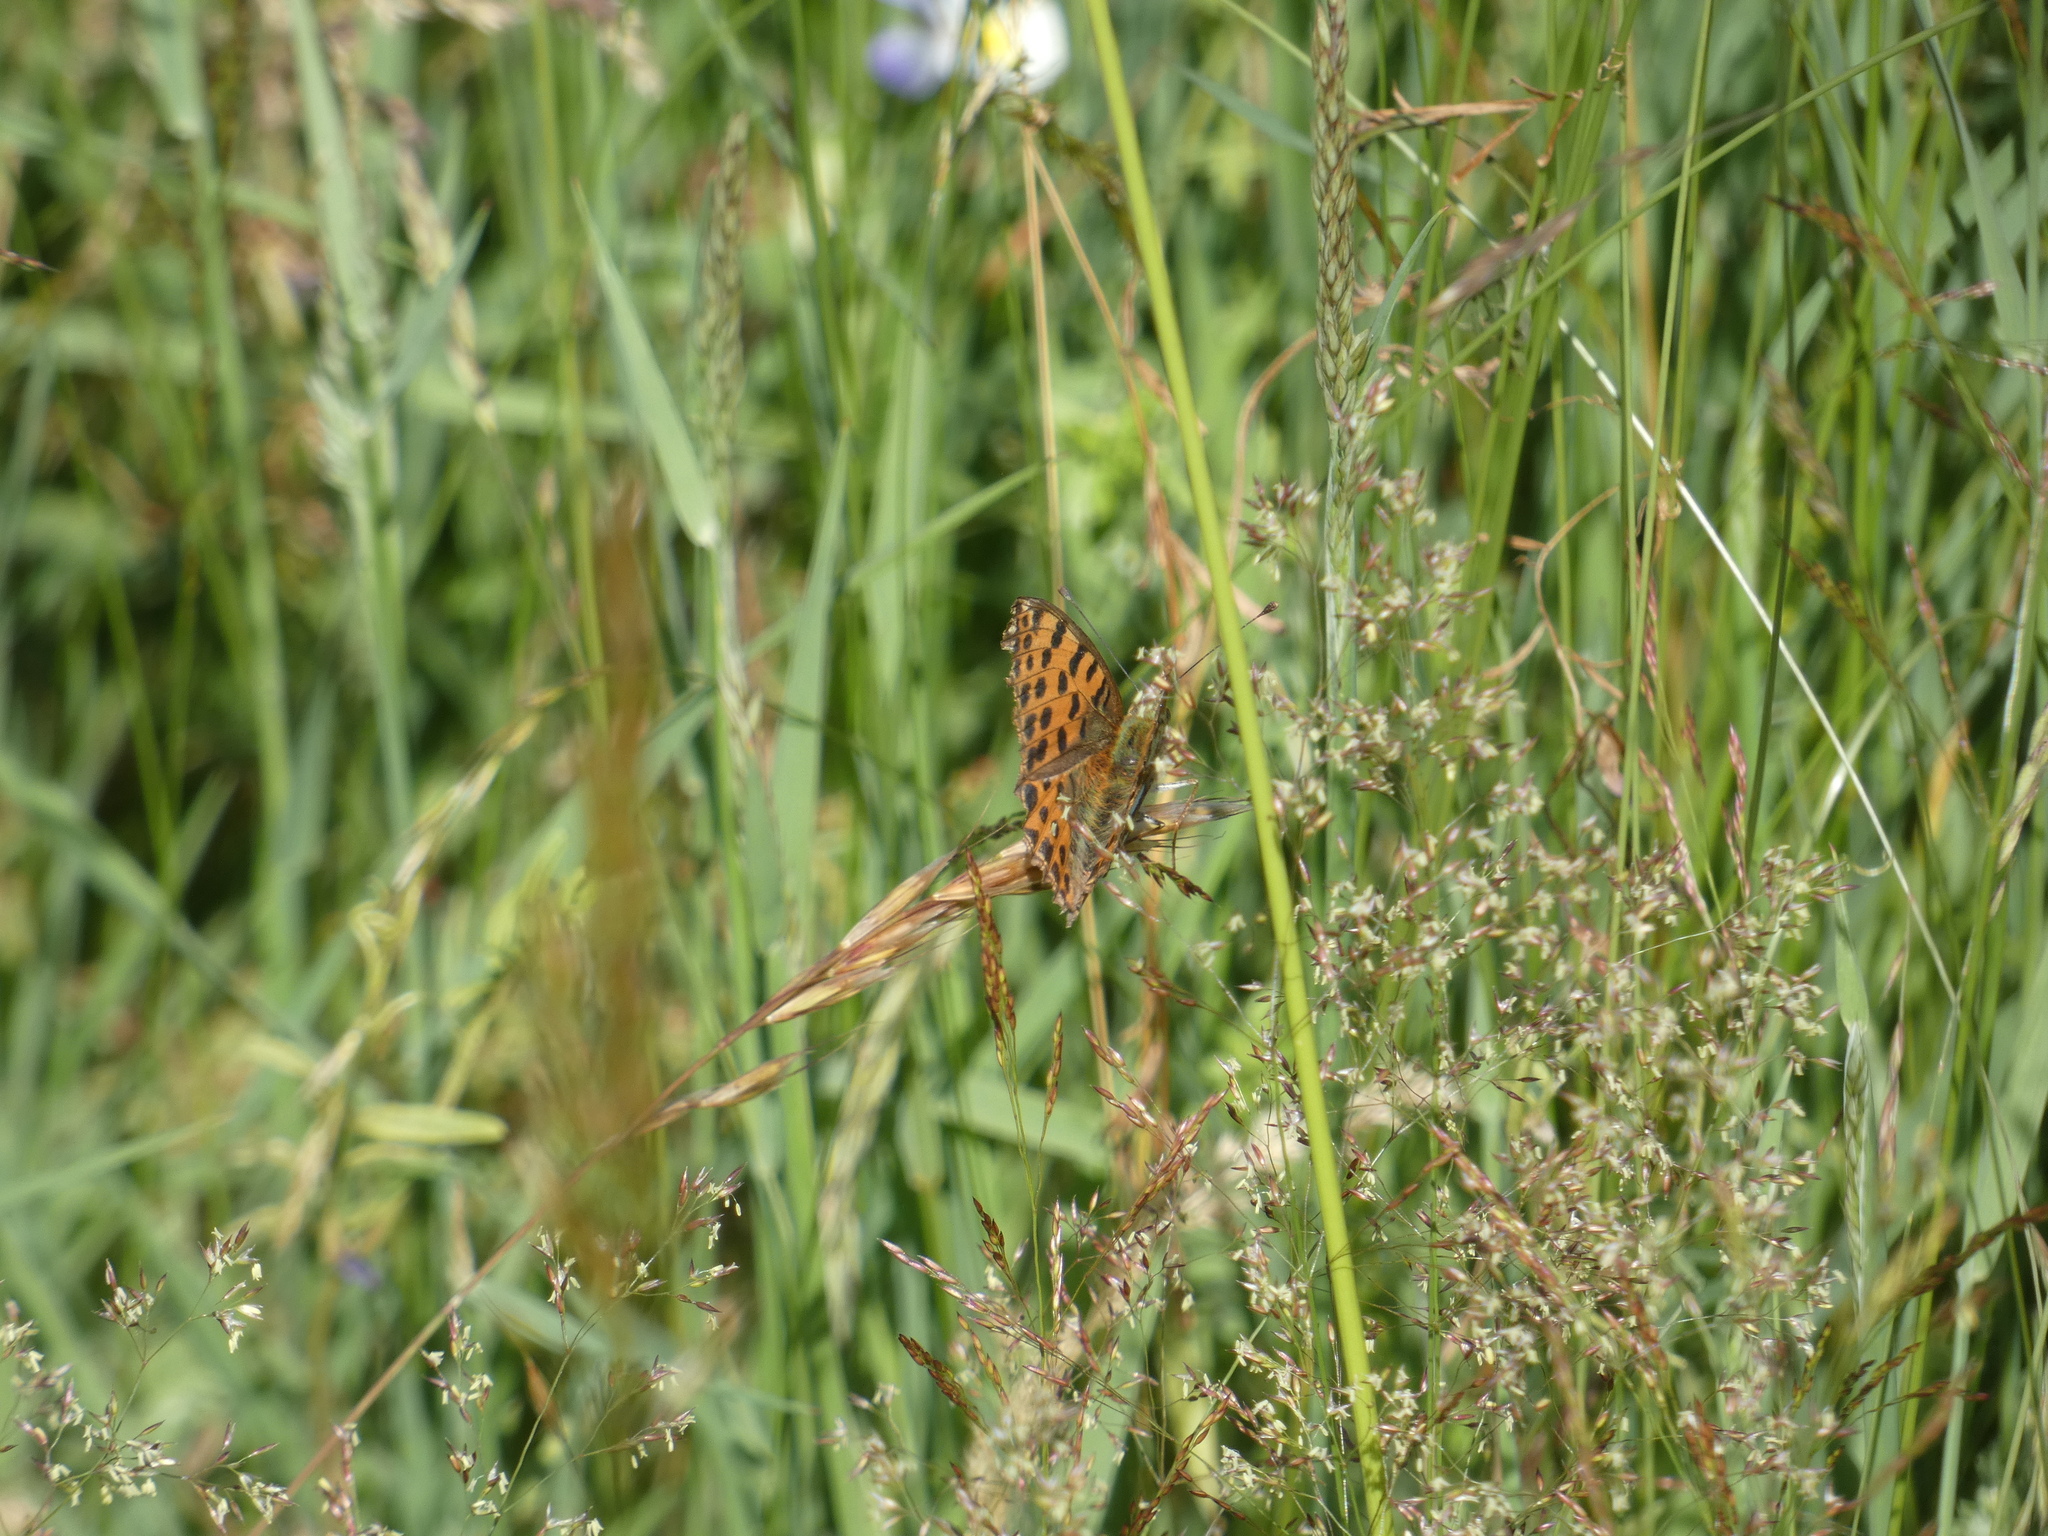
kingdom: Animalia
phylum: Arthropoda
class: Insecta
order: Lepidoptera
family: Nymphalidae
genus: Issoria
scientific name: Issoria lathonia
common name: Queen of spain fritillary
